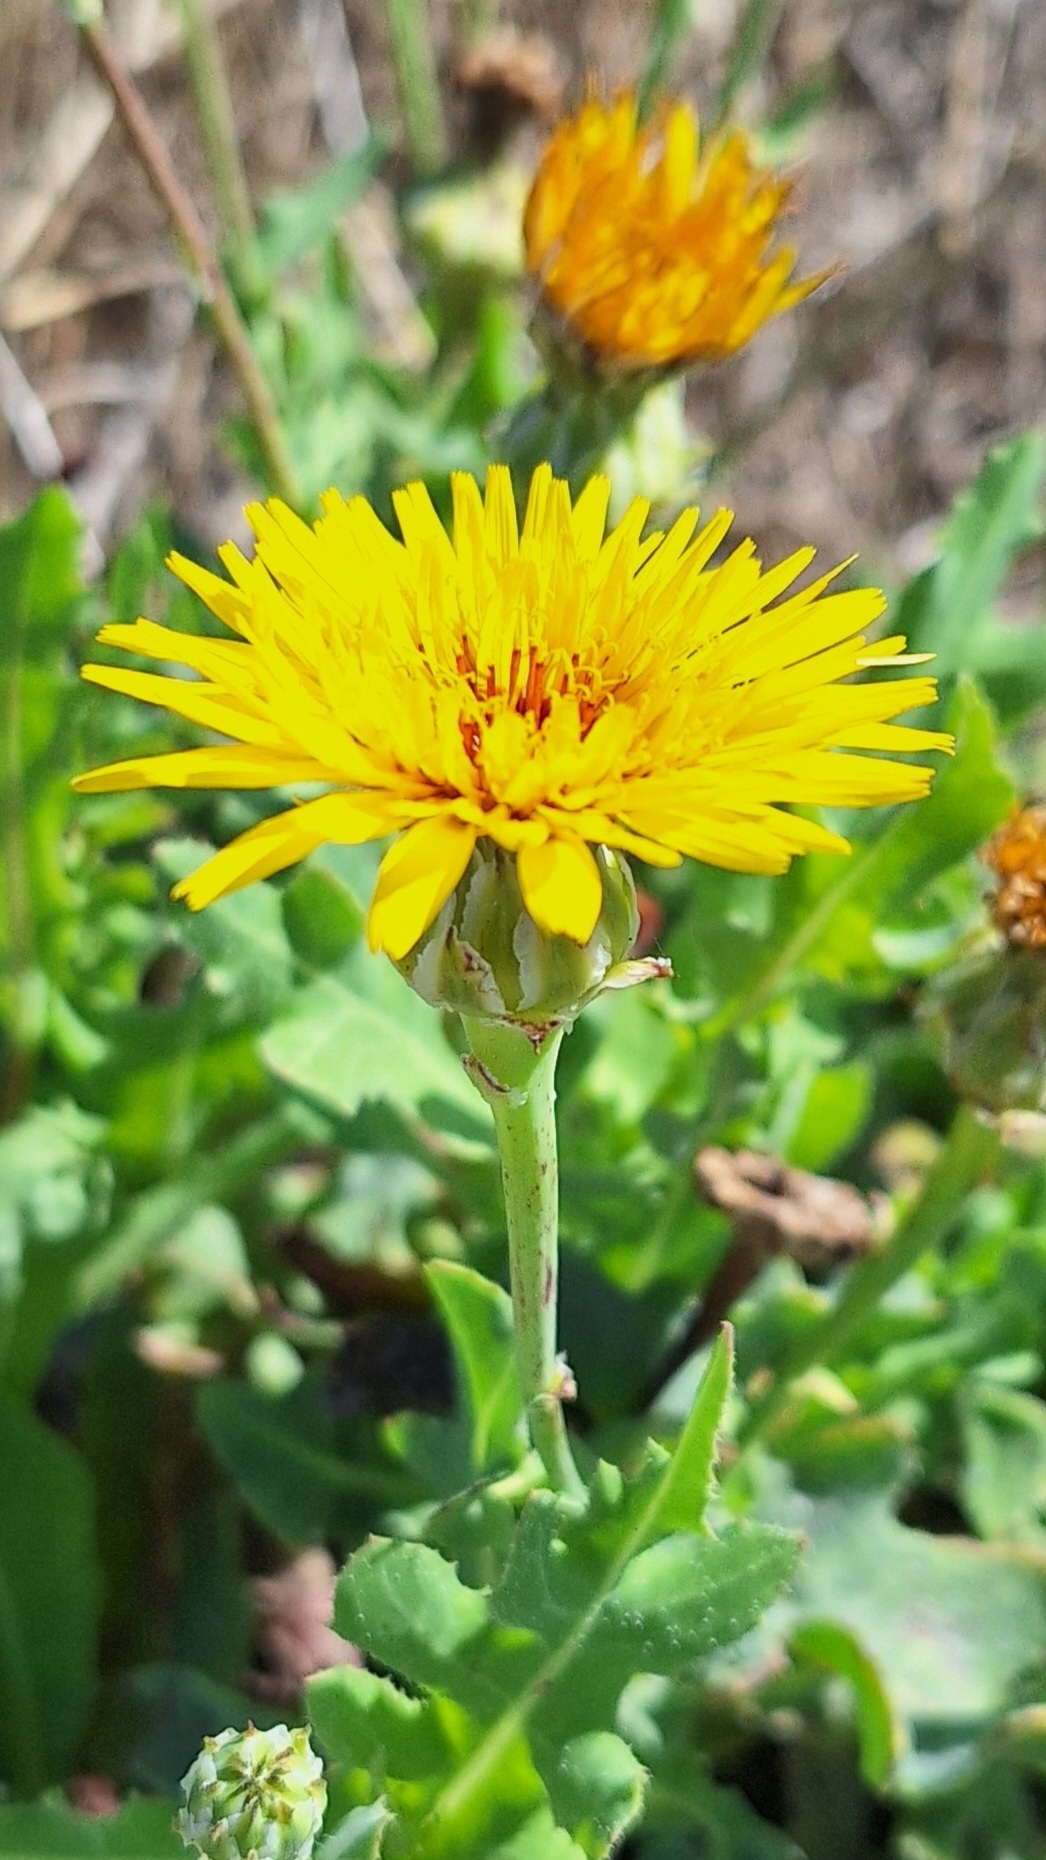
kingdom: Plantae
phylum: Tracheophyta
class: Magnoliopsida
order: Asterales
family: Asteraceae
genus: Reichardia
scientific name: Reichardia tingitana
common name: Reichardia
